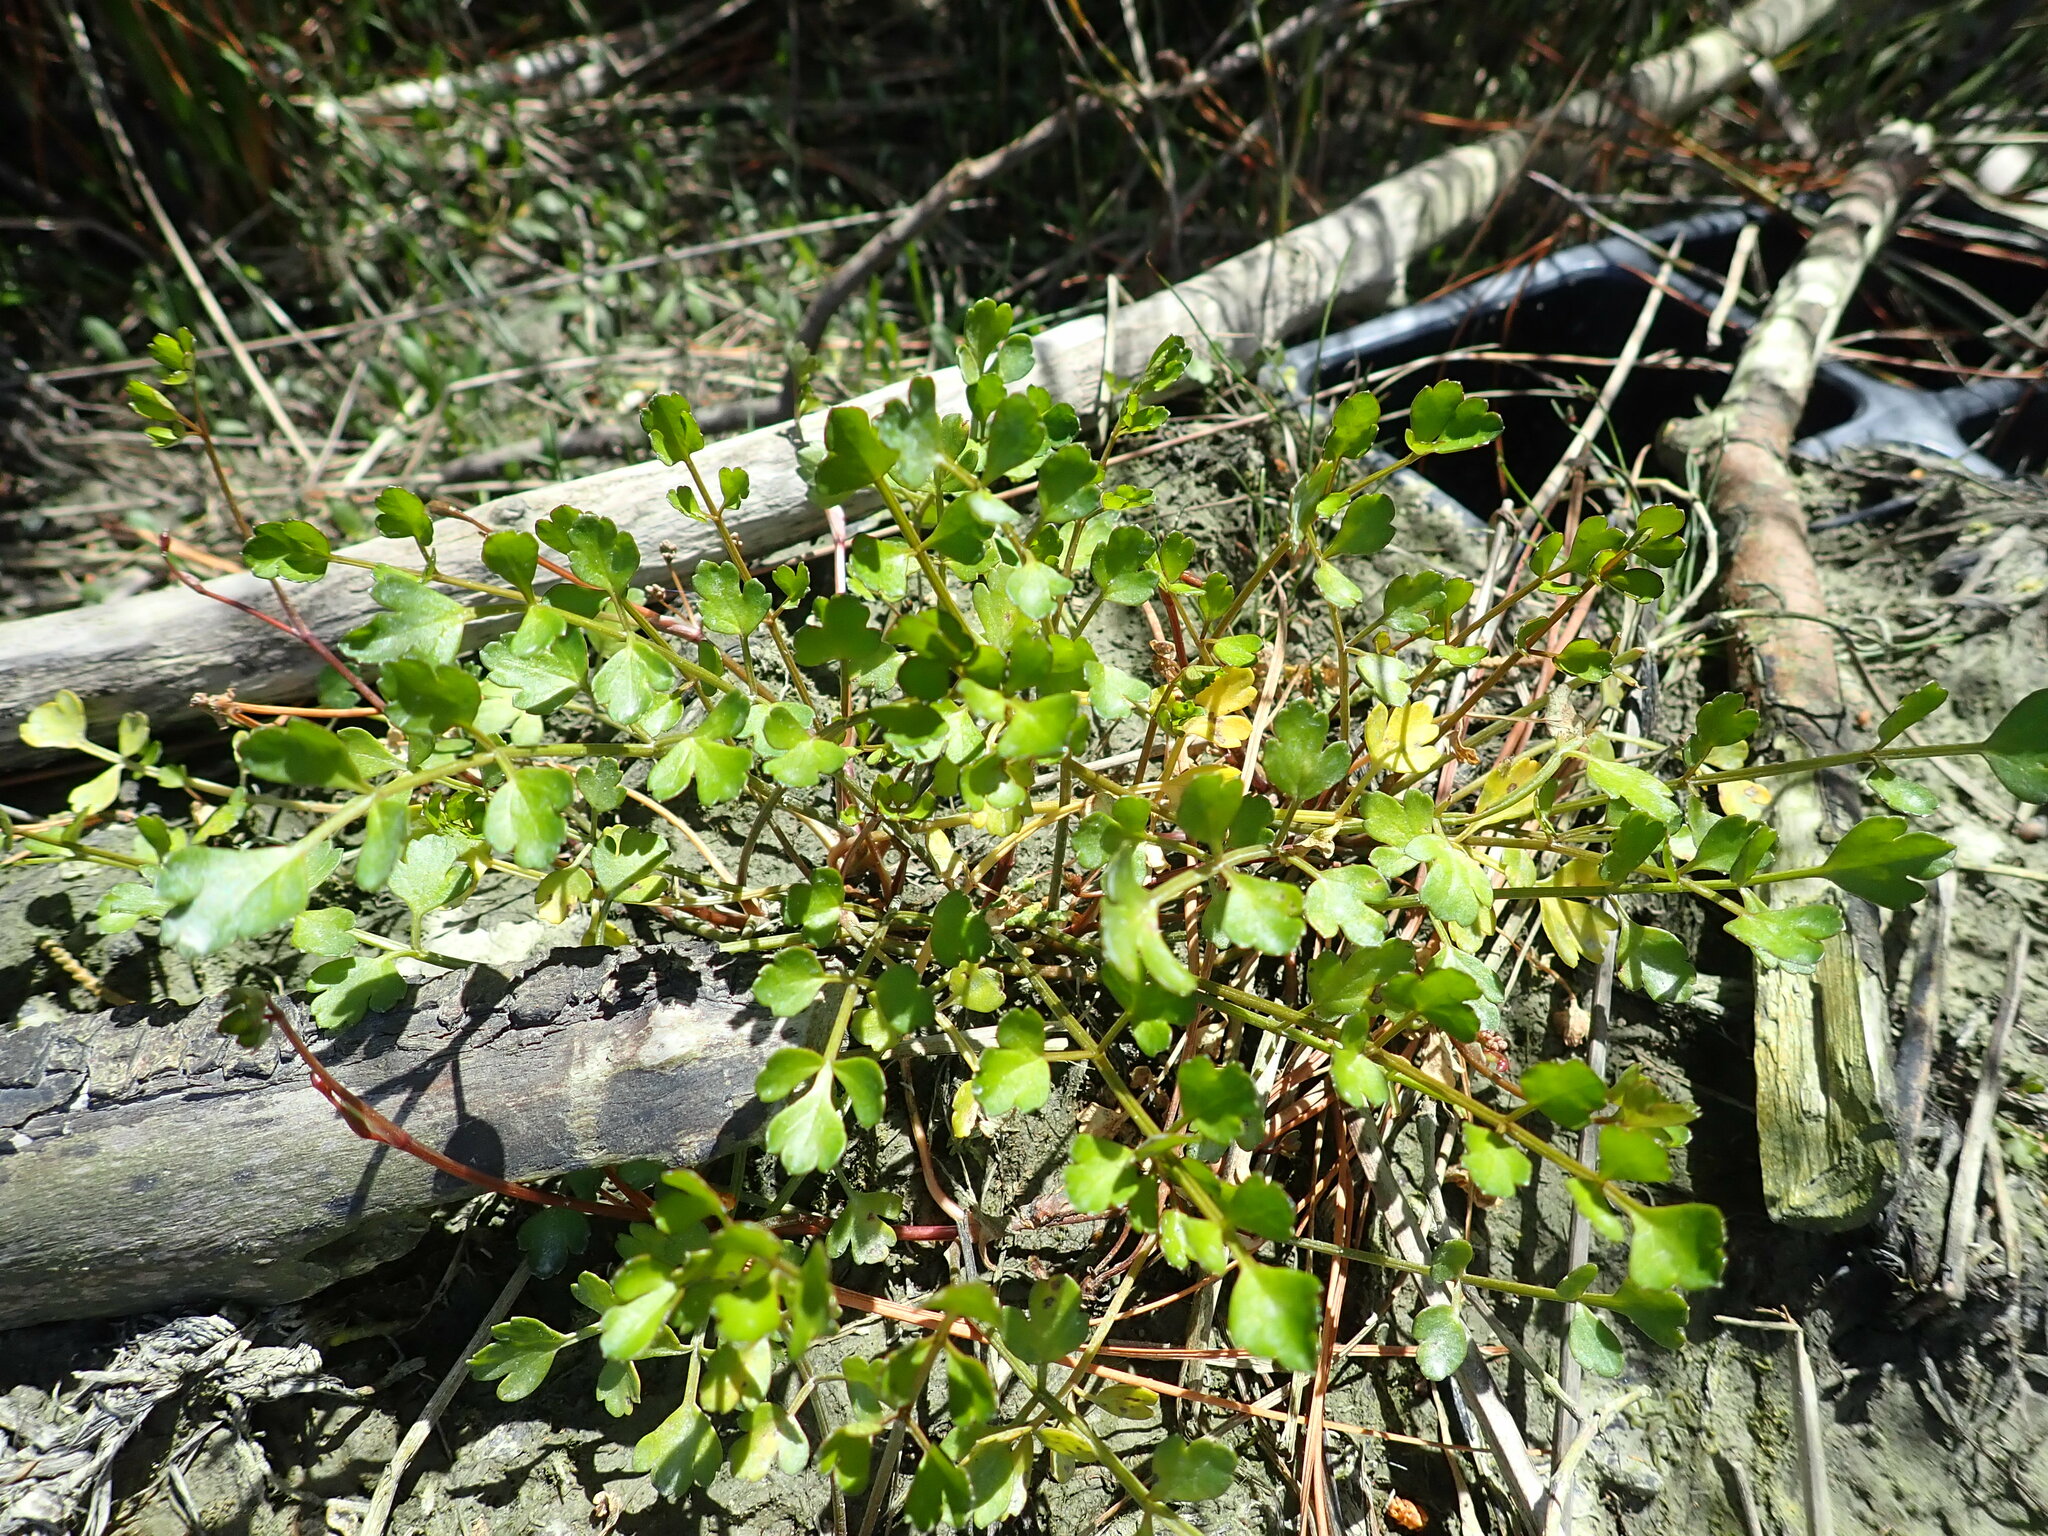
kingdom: Plantae
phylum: Tracheophyta
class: Magnoliopsida
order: Apiales
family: Apiaceae
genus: Apium
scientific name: Apium prostratum
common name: Prostrate marshwort
